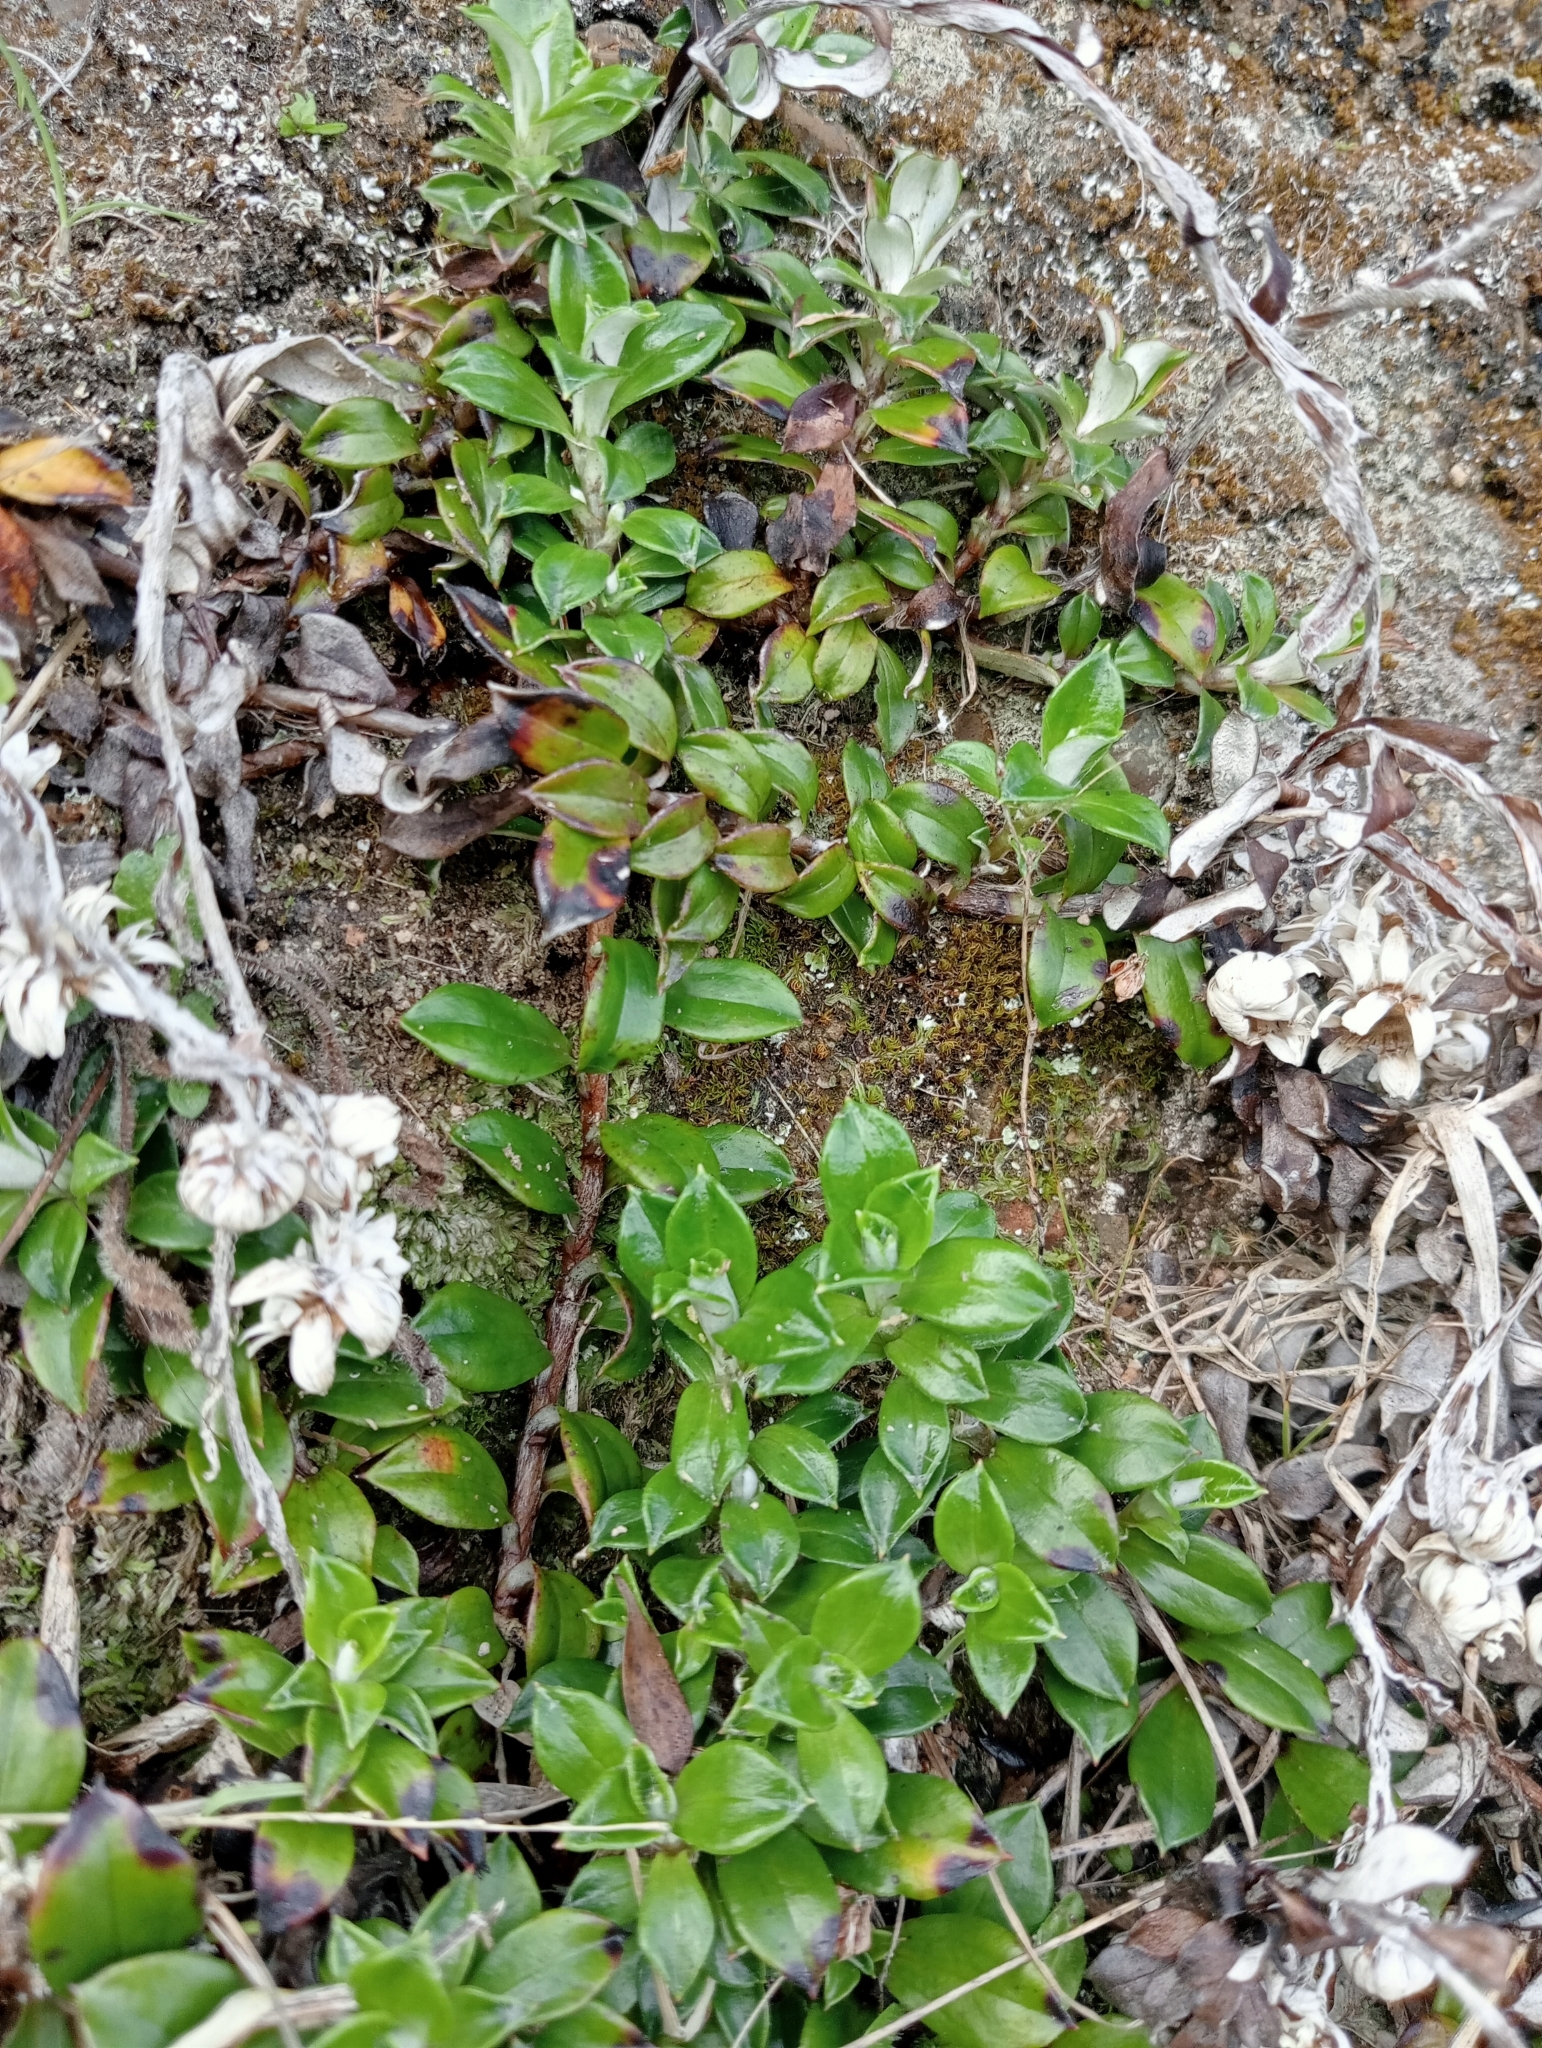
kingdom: Plantae
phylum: Tracheophyta
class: Magnoliopsida
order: Asterales
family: Asteraceae
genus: Anaphalioides
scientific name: Anaphalioides hookeri
